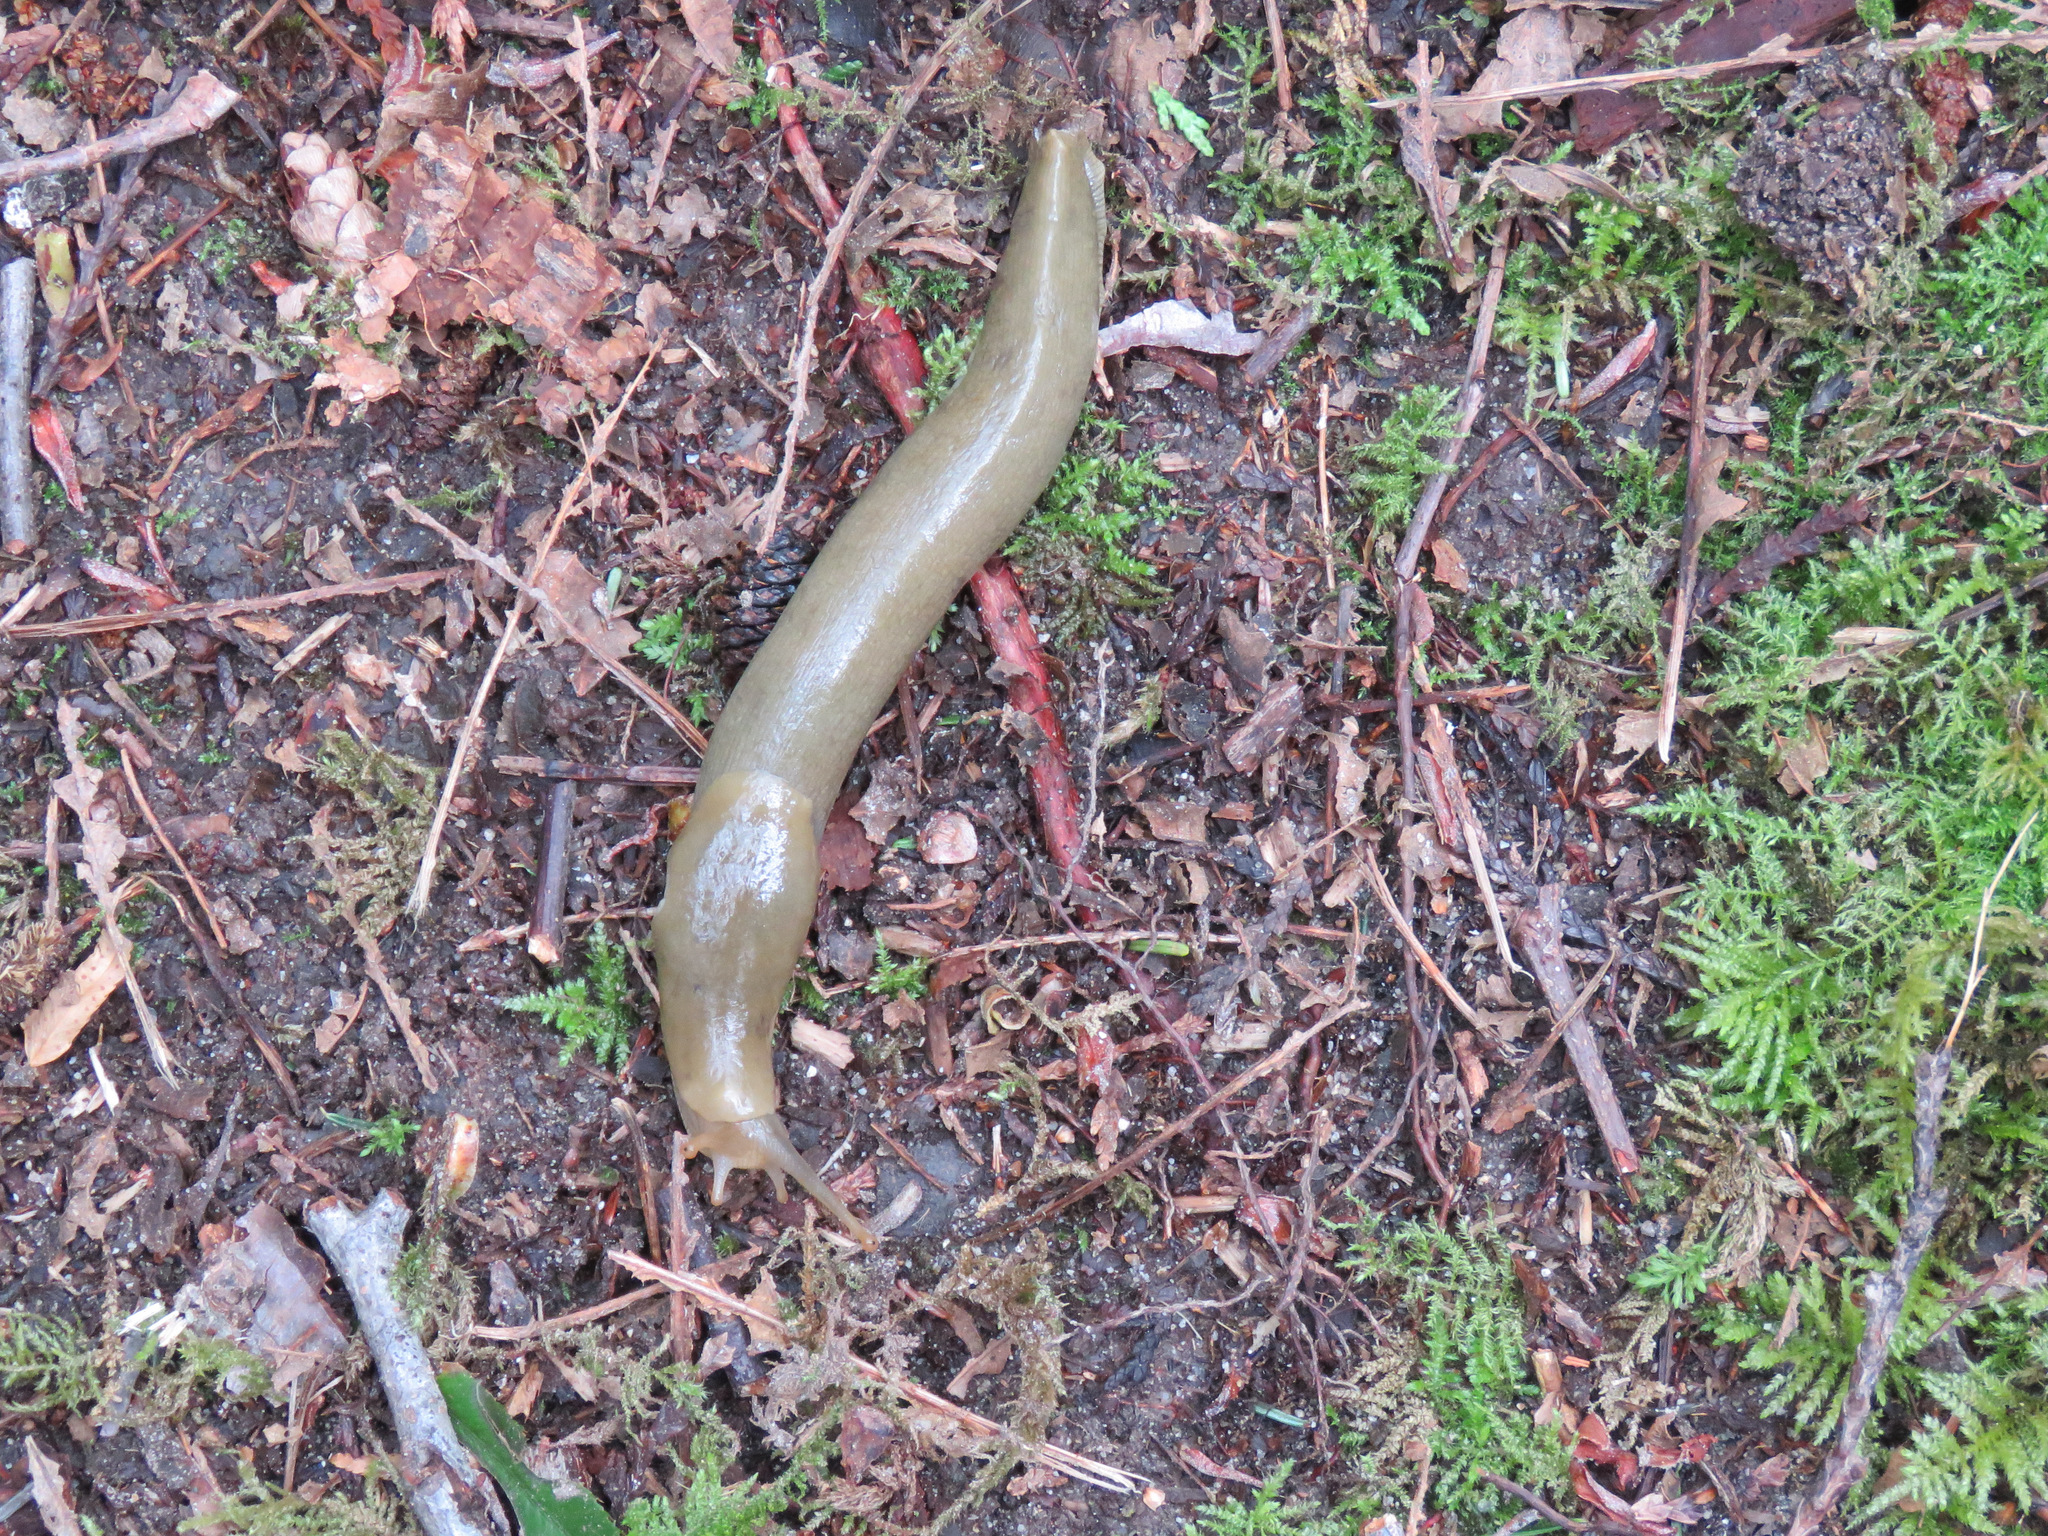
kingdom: Animalia
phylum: Mollusca
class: Gastropoda
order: Stylommatophora
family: Ariolimacidae
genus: Ariolimax
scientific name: Ariolimax columbianus
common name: Pacific banana slug
